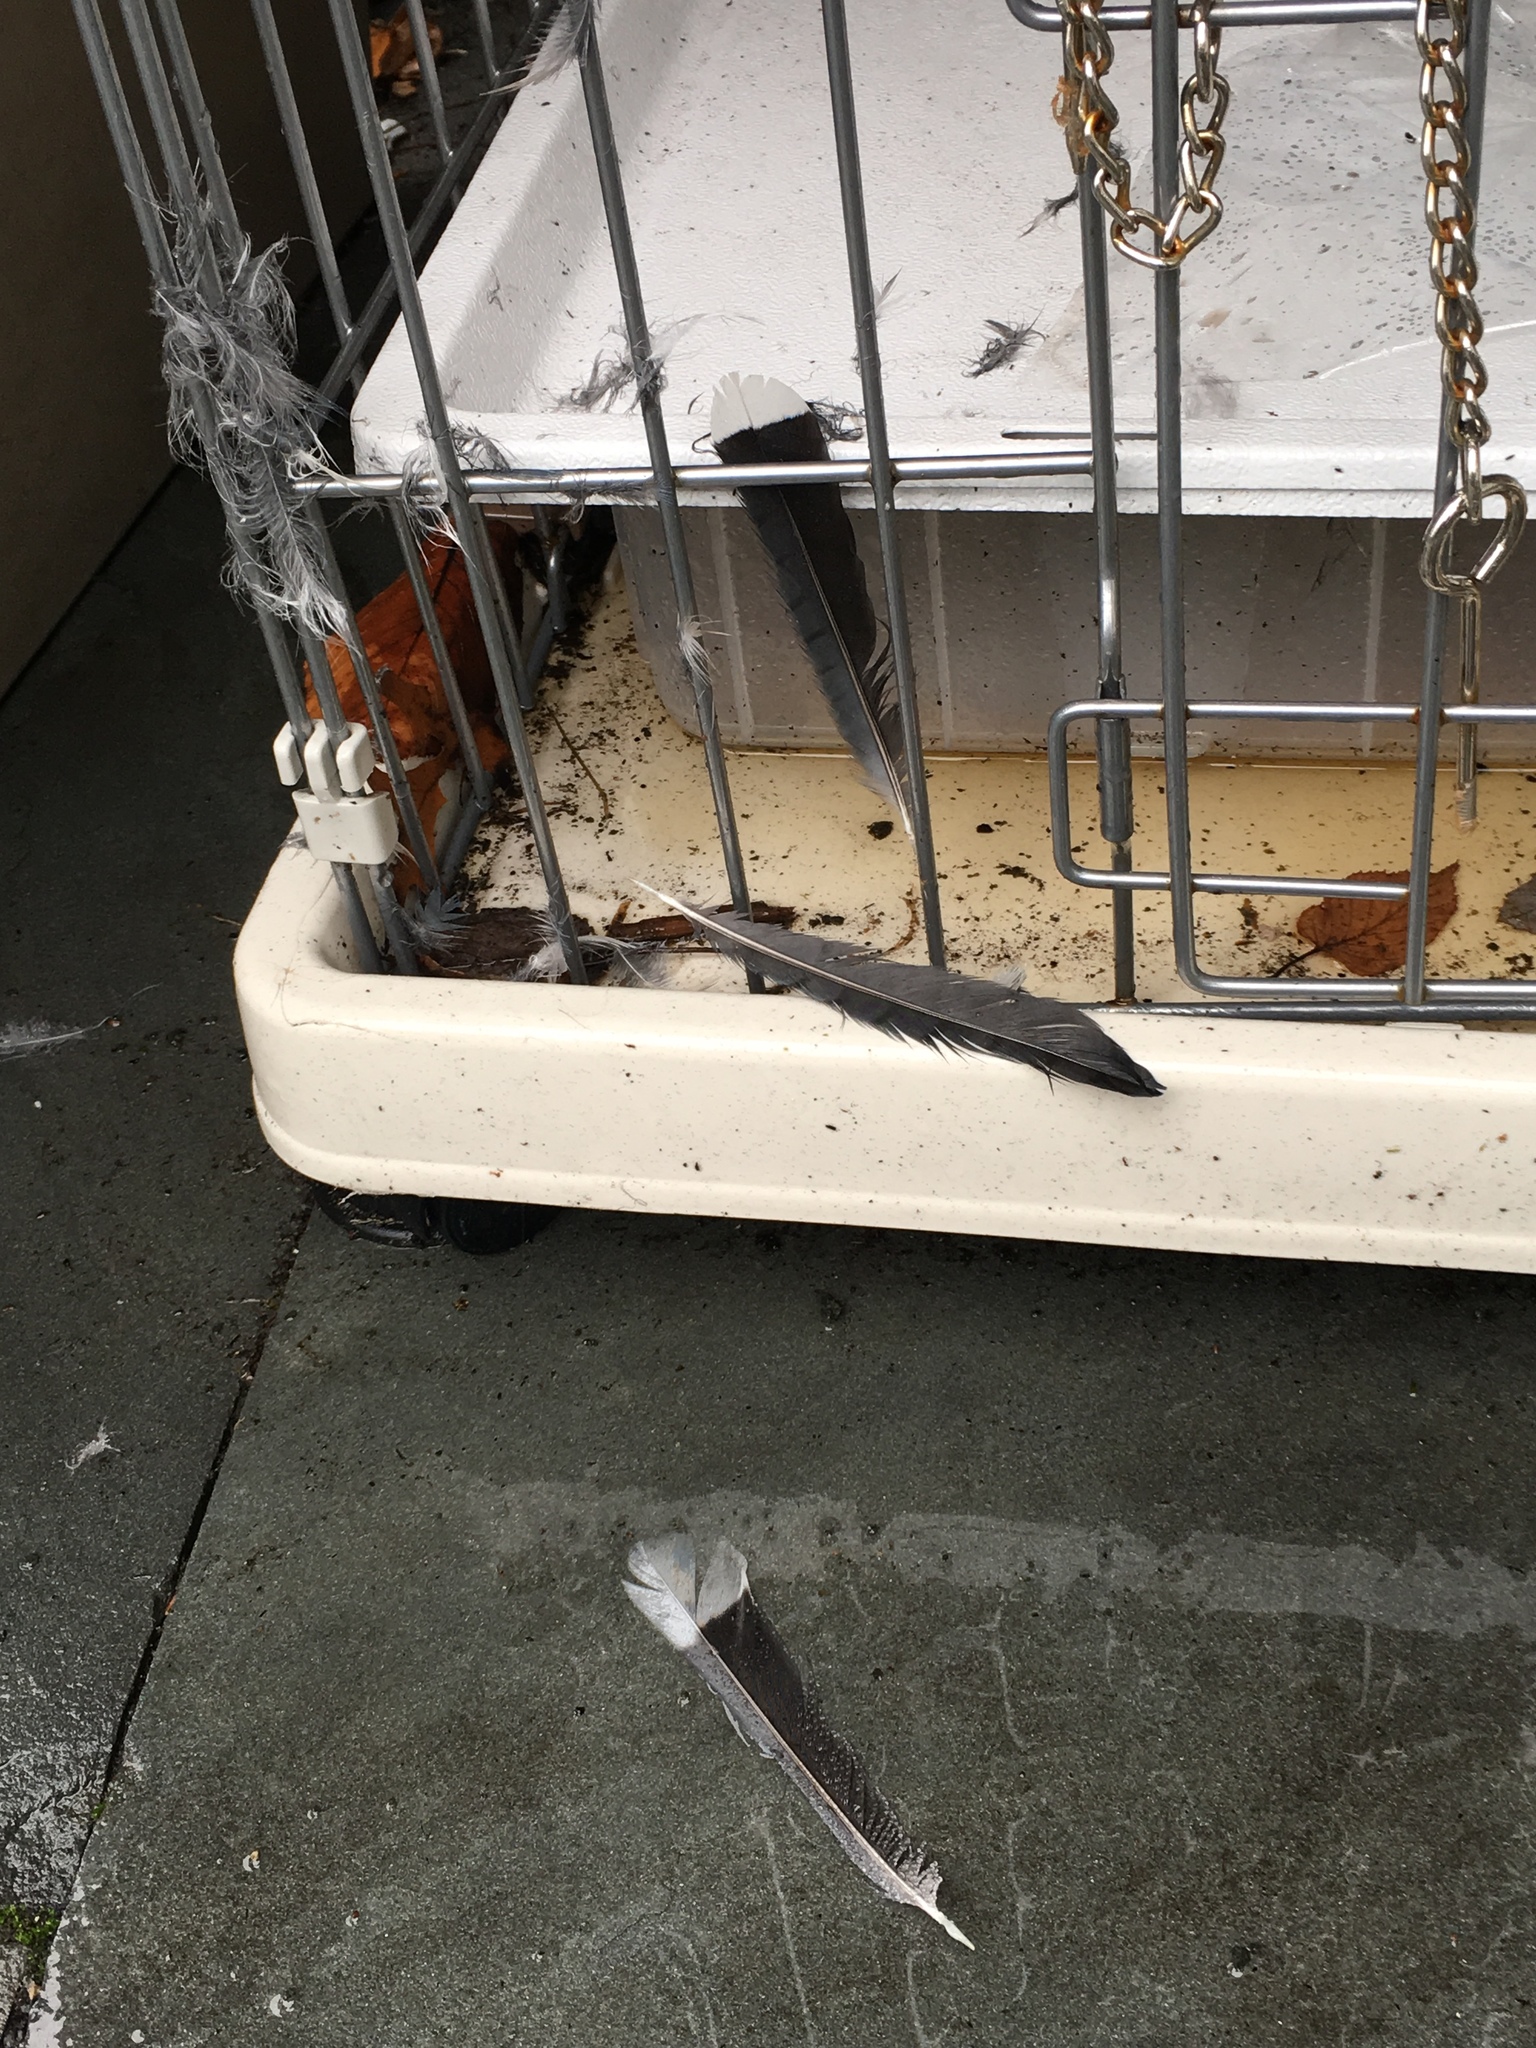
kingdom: Animalia
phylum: Chordata
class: Aves
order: Passeriformes
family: Corvidae
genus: Cyanocitta
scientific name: Cyanocitta cristata
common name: Blue jay
